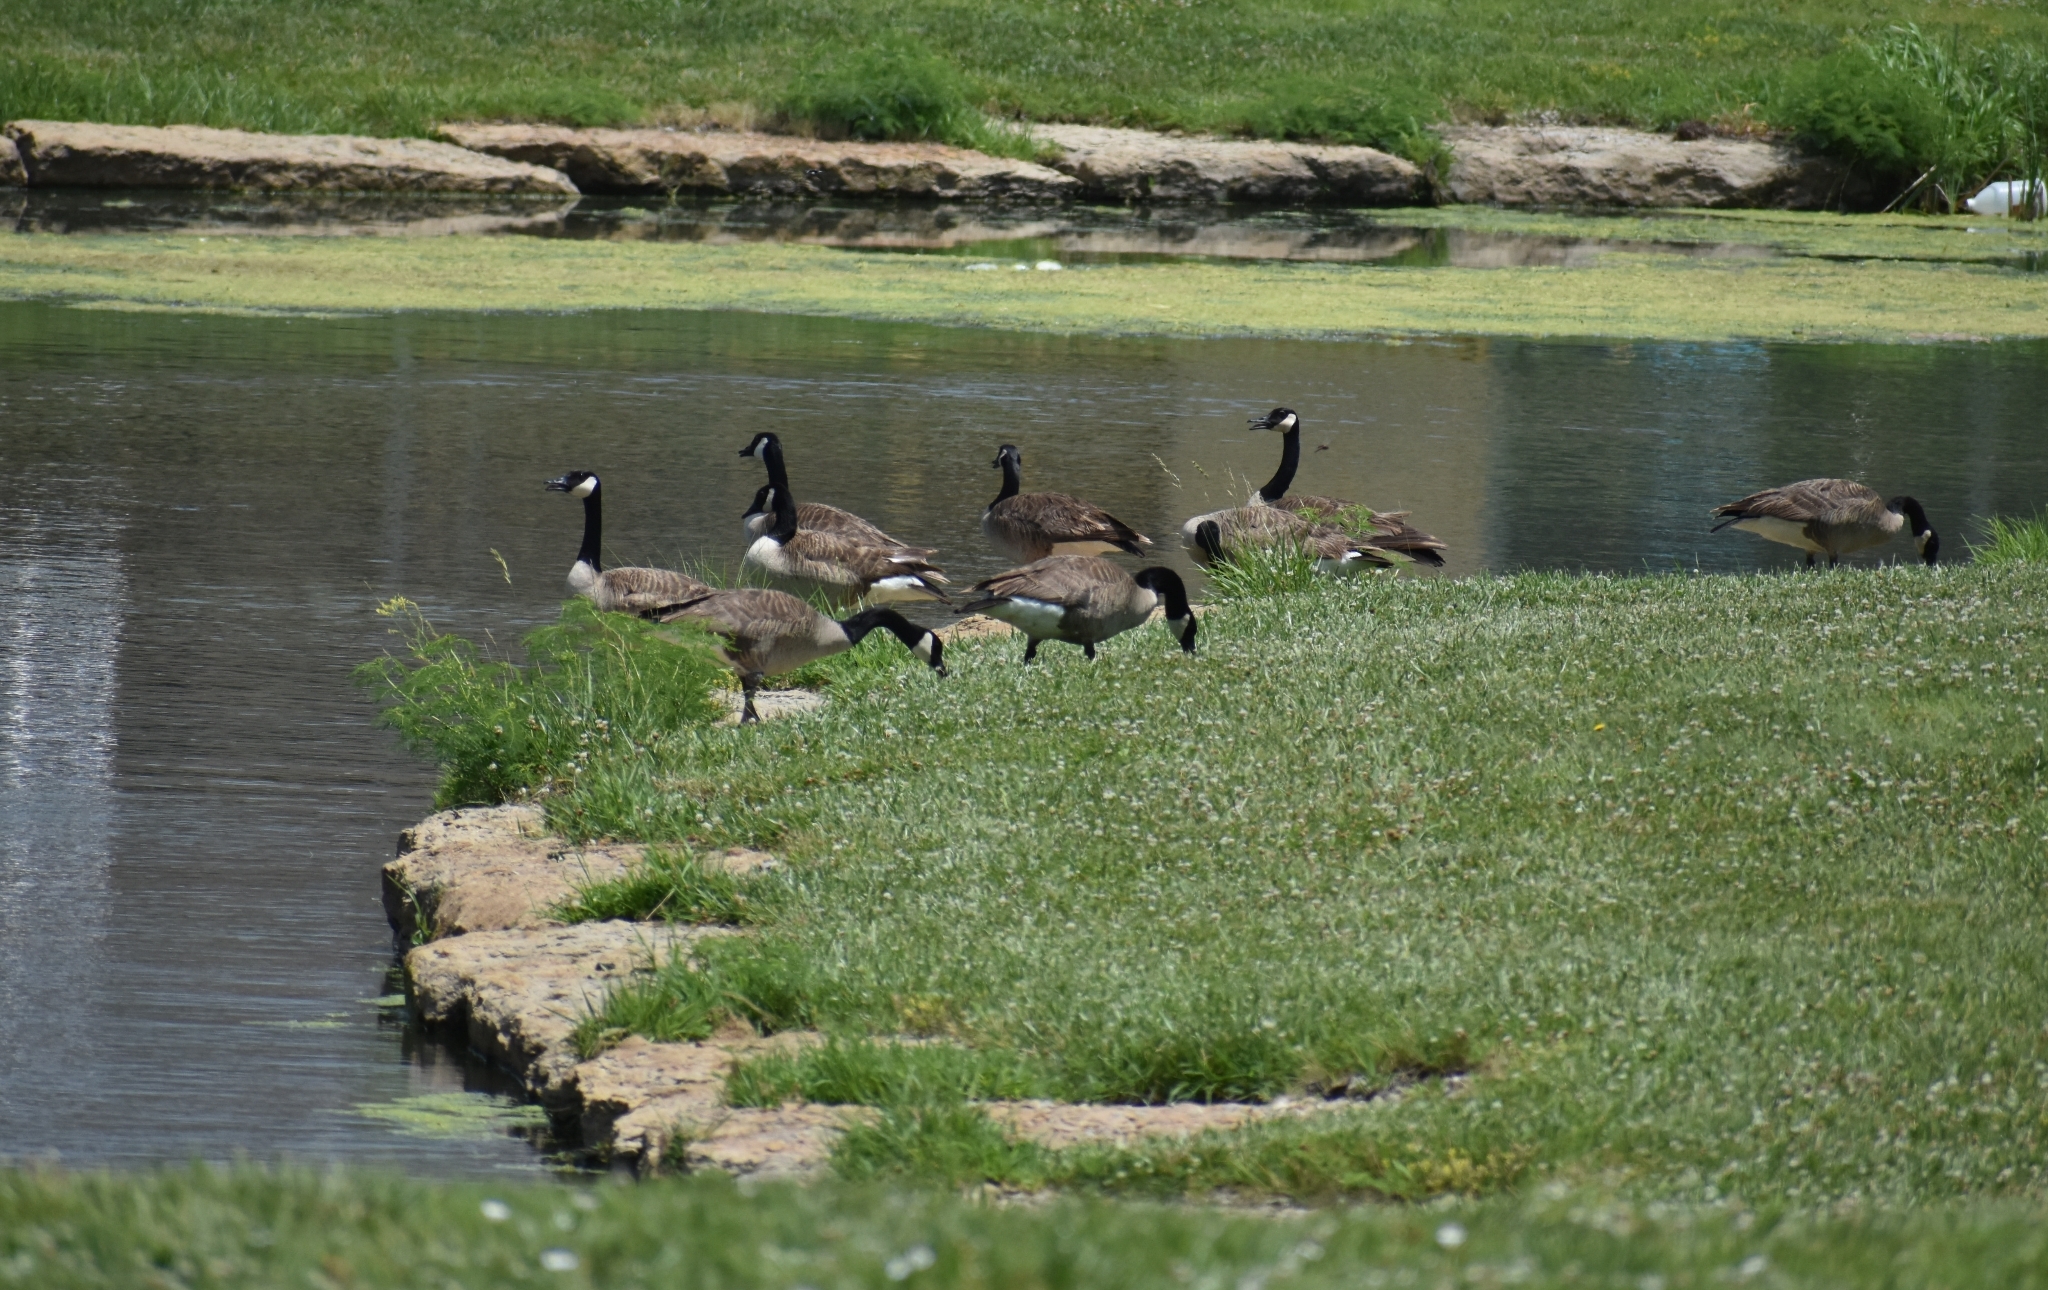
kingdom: Animalia
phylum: Chordata
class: Aves
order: Anseriformes
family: Anatidae
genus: Branta
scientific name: Branta canadensis
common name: Canada goose
